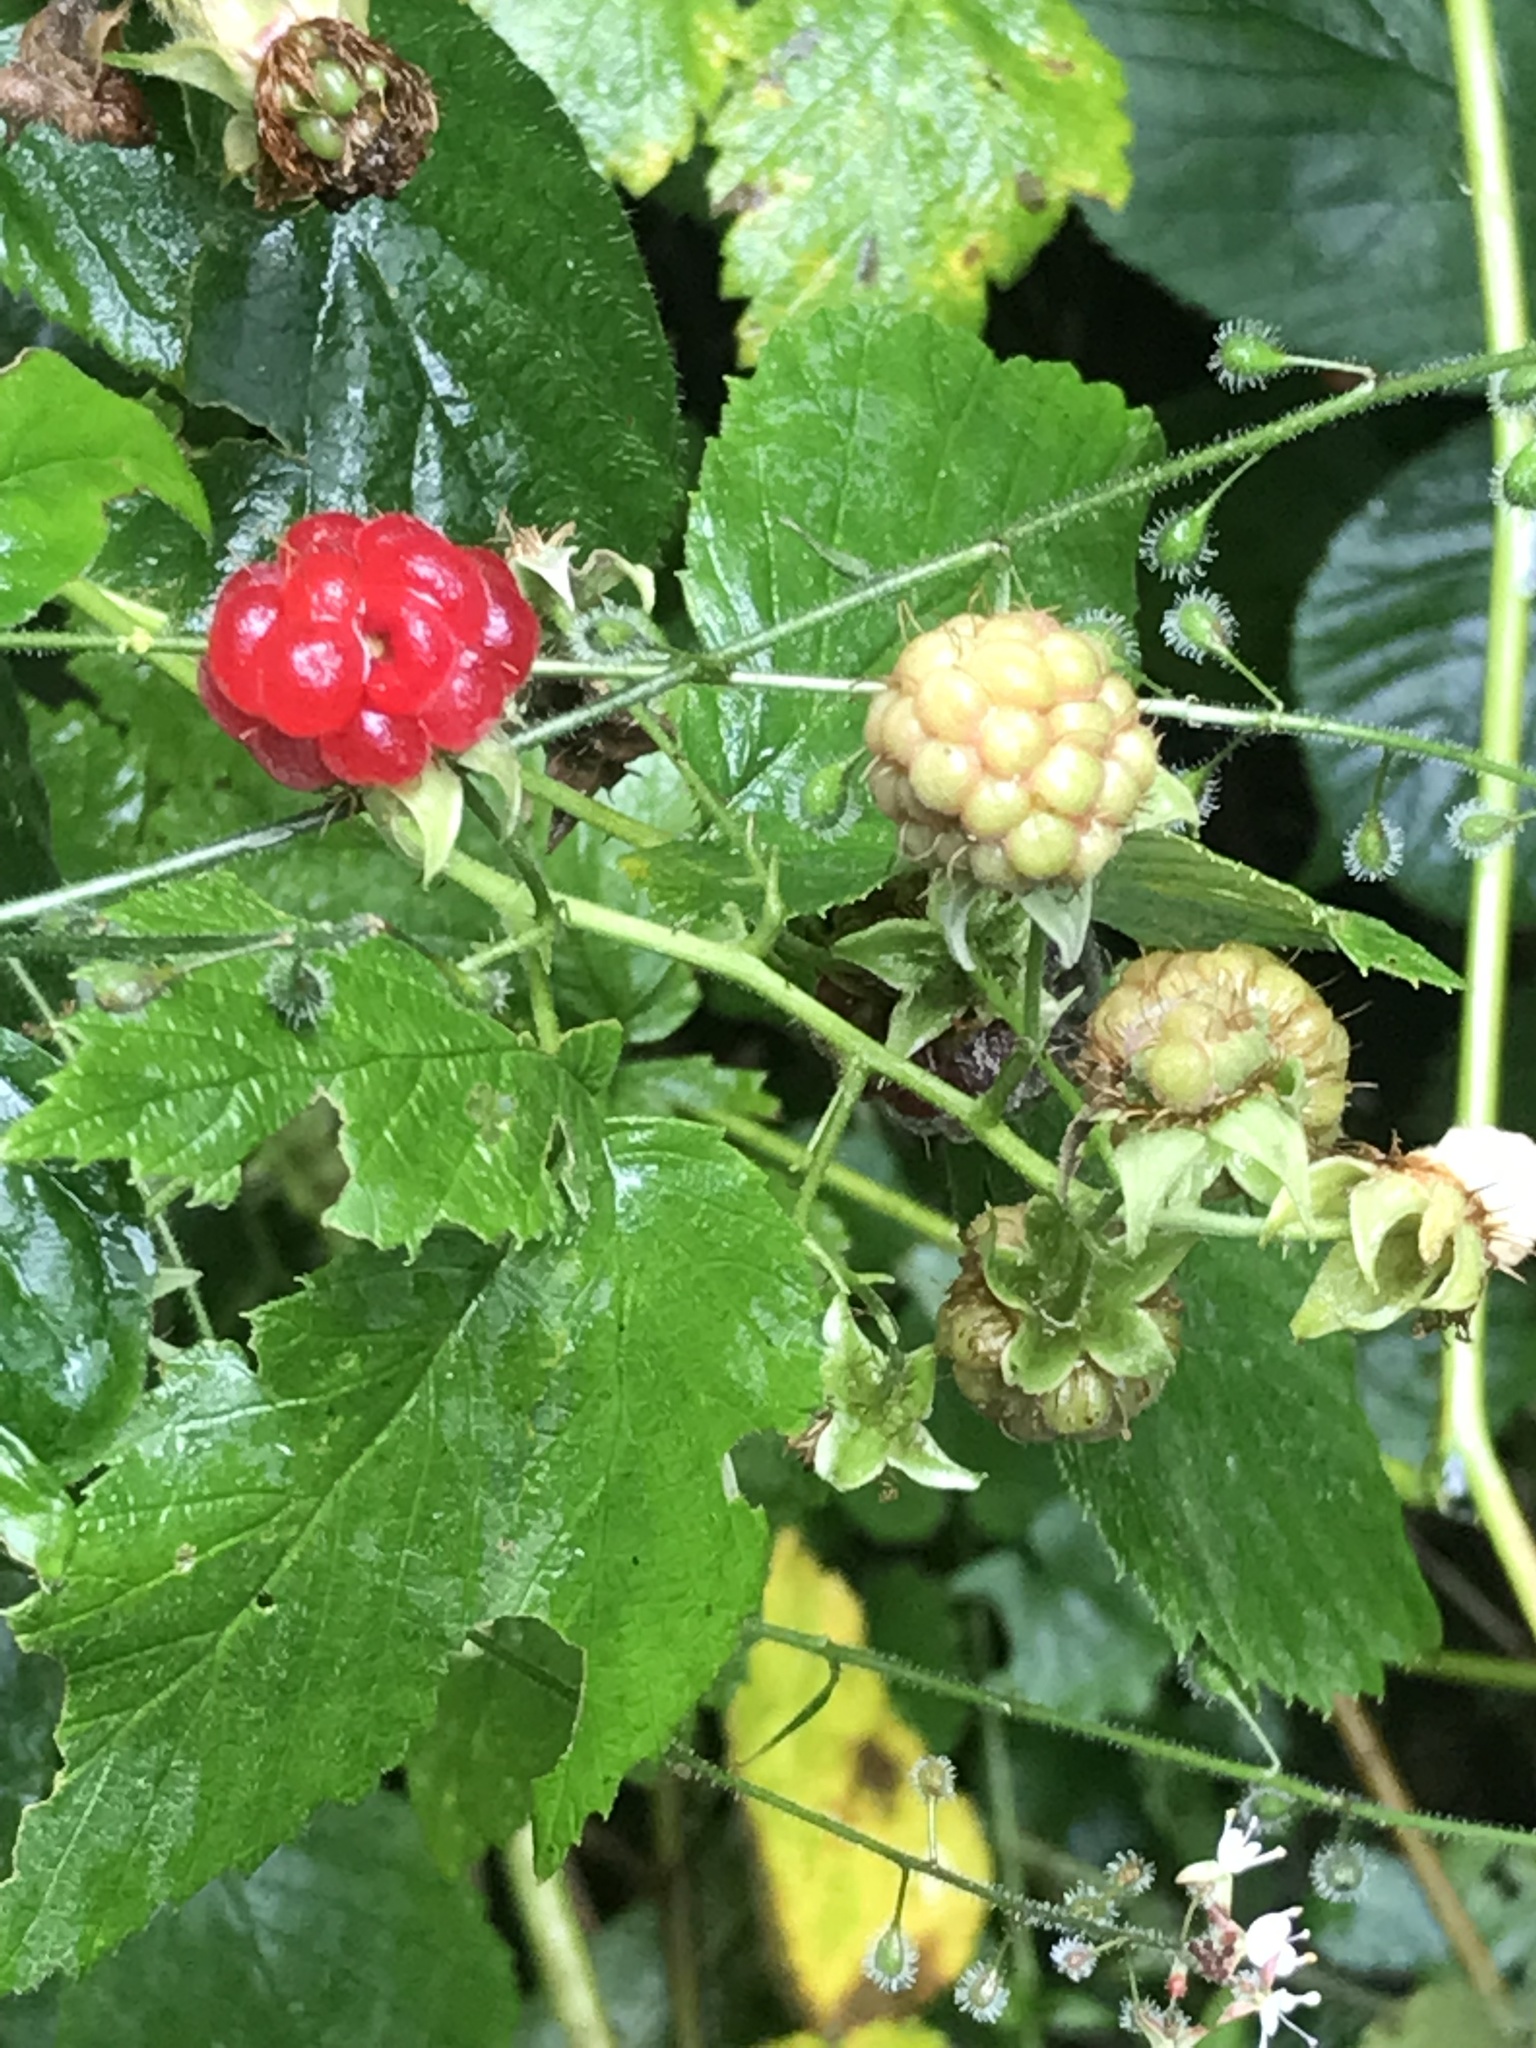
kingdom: Plantae
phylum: Tracheophyta
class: Magnoliopsida
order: Rosales
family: Rosaceae
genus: Rubus
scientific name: Rubus idaeus
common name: Raspberry
